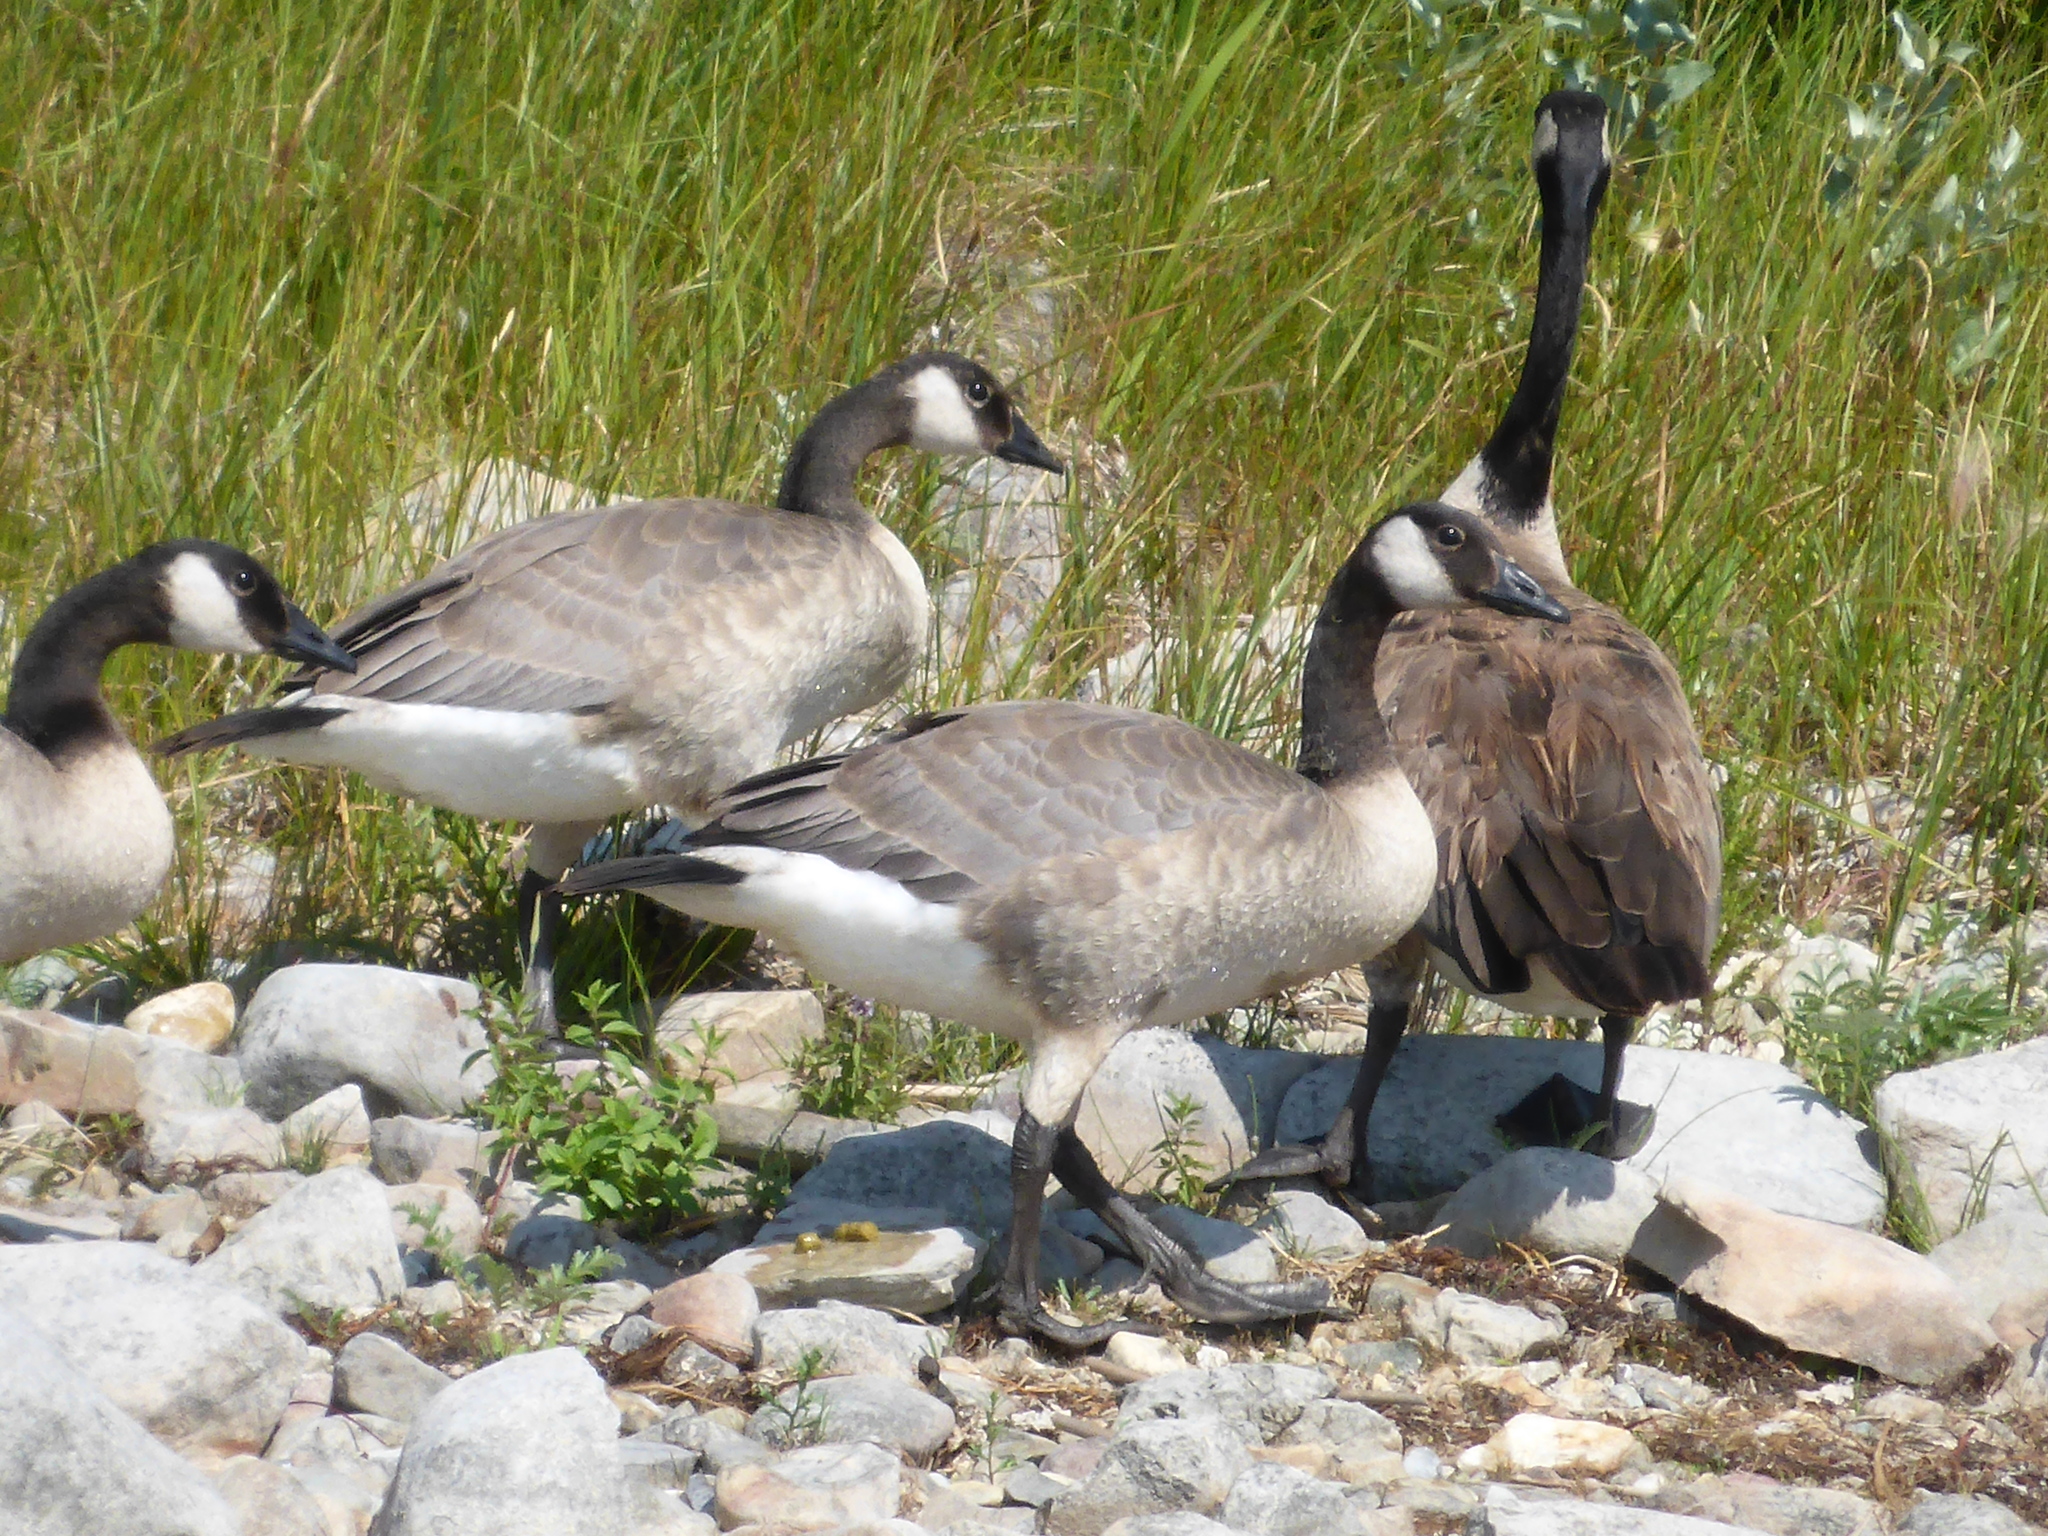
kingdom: Animalia
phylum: Chordata
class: Aves
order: Anseriformes
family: Anatidae
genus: Branta
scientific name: Branta canadensis
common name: Canada goose
